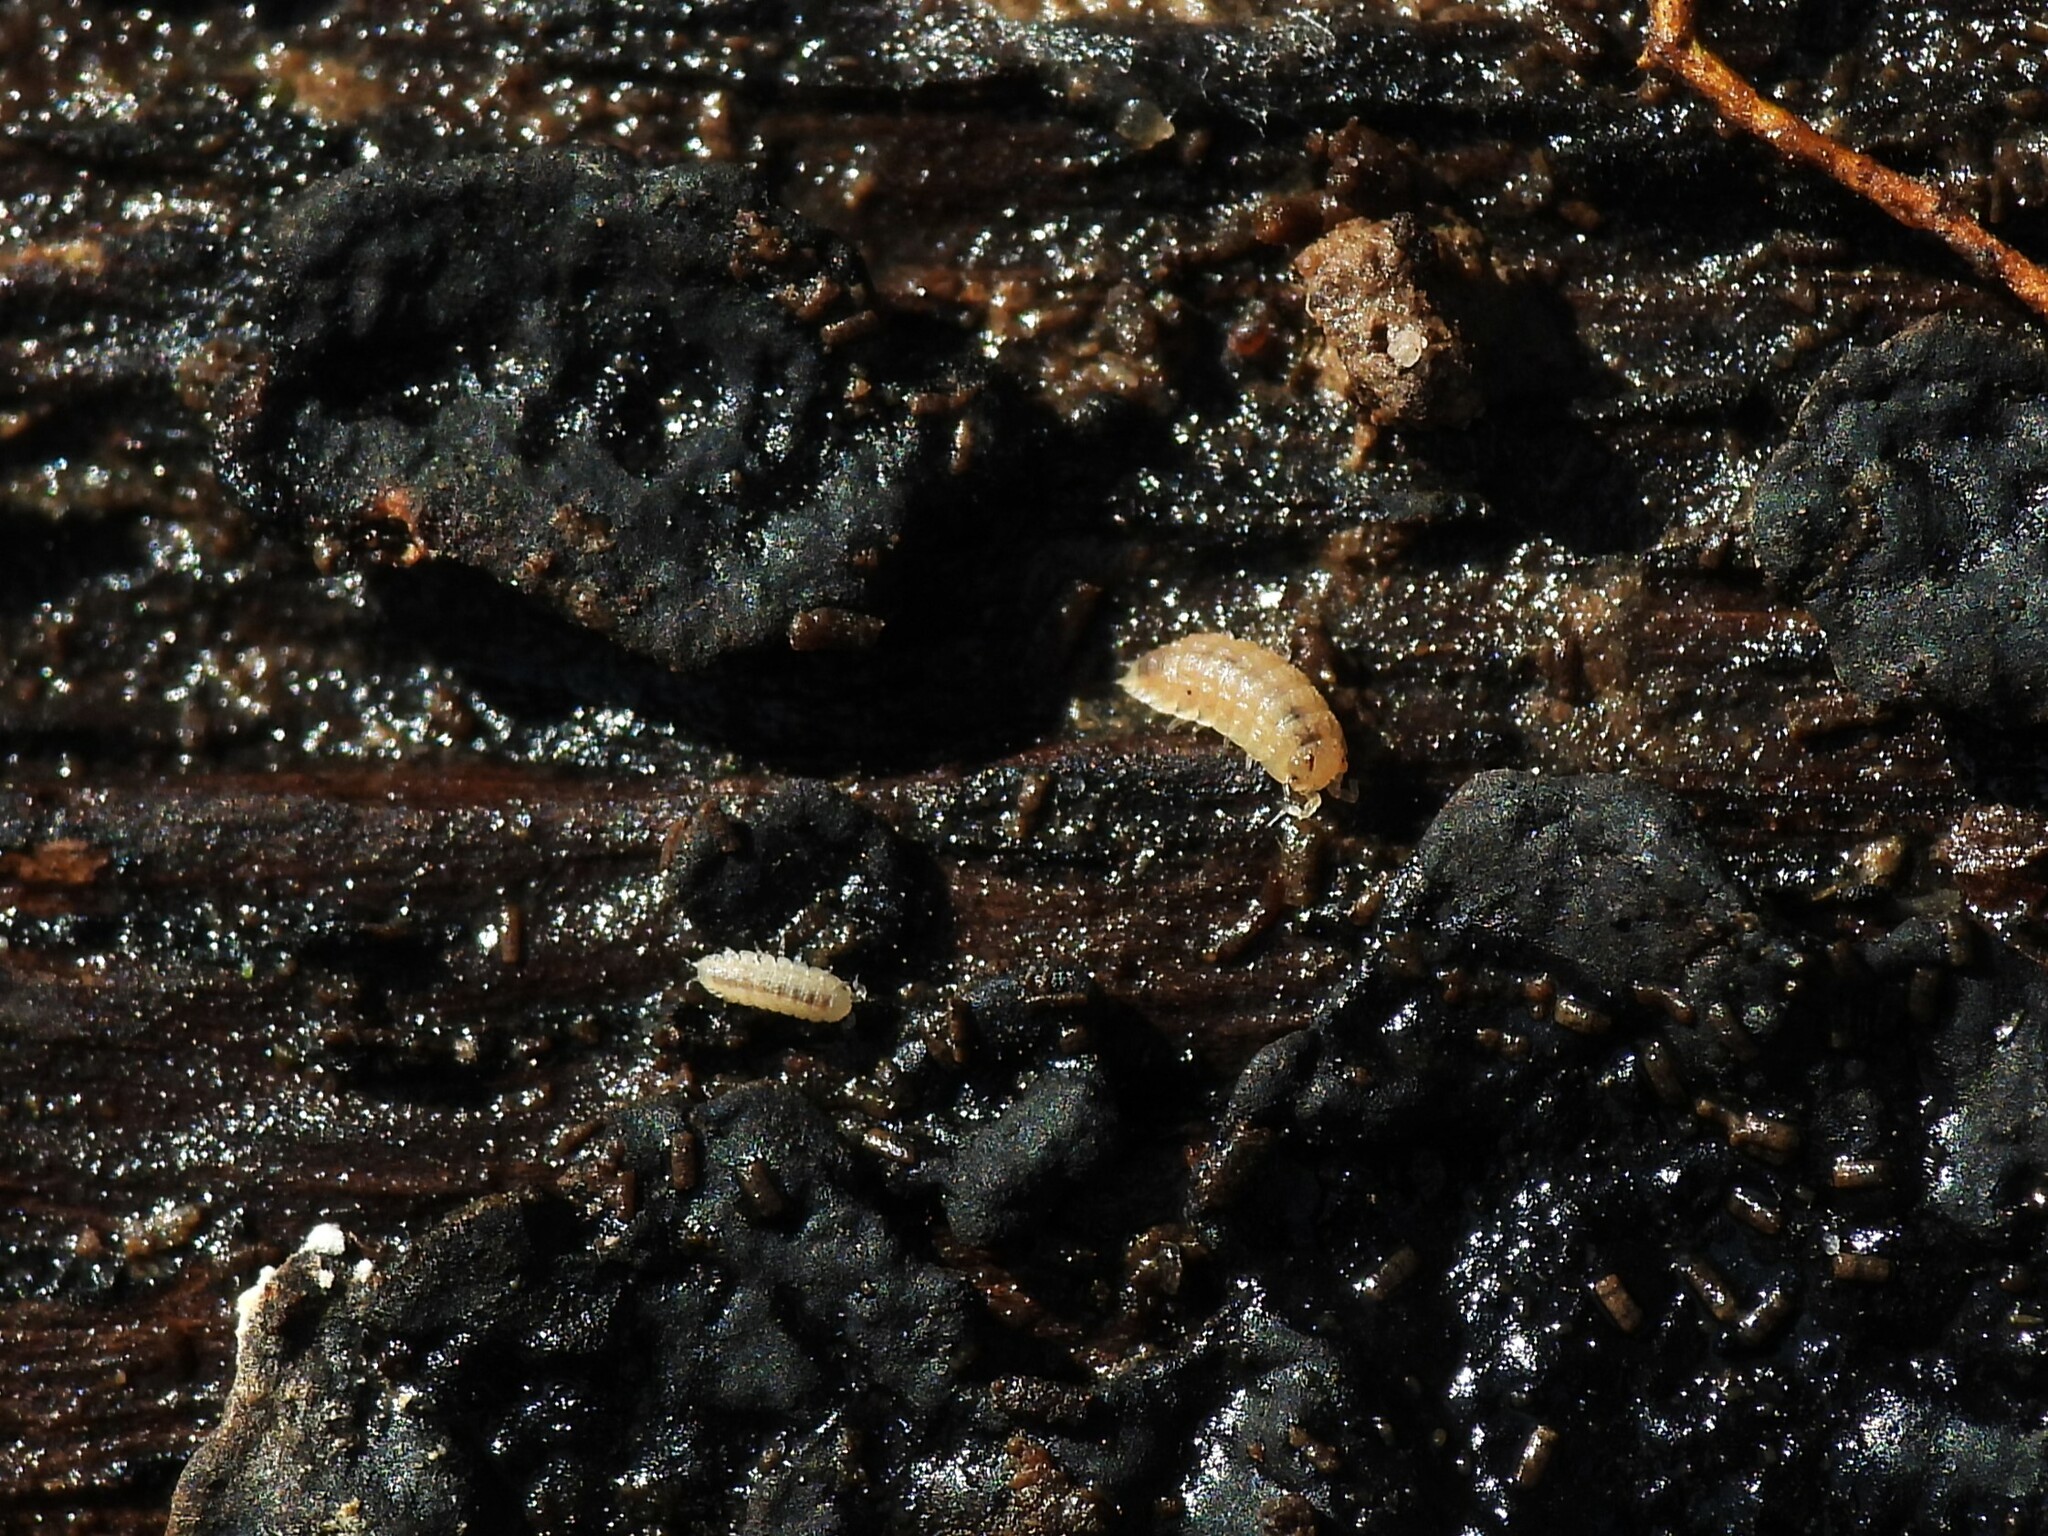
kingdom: Animalia
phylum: Arthropoda
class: Malacostraca
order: Isopoda
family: Trichoniscidae
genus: Haplophthalmus
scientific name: Haplophthalmus danicus
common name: Pillbug
